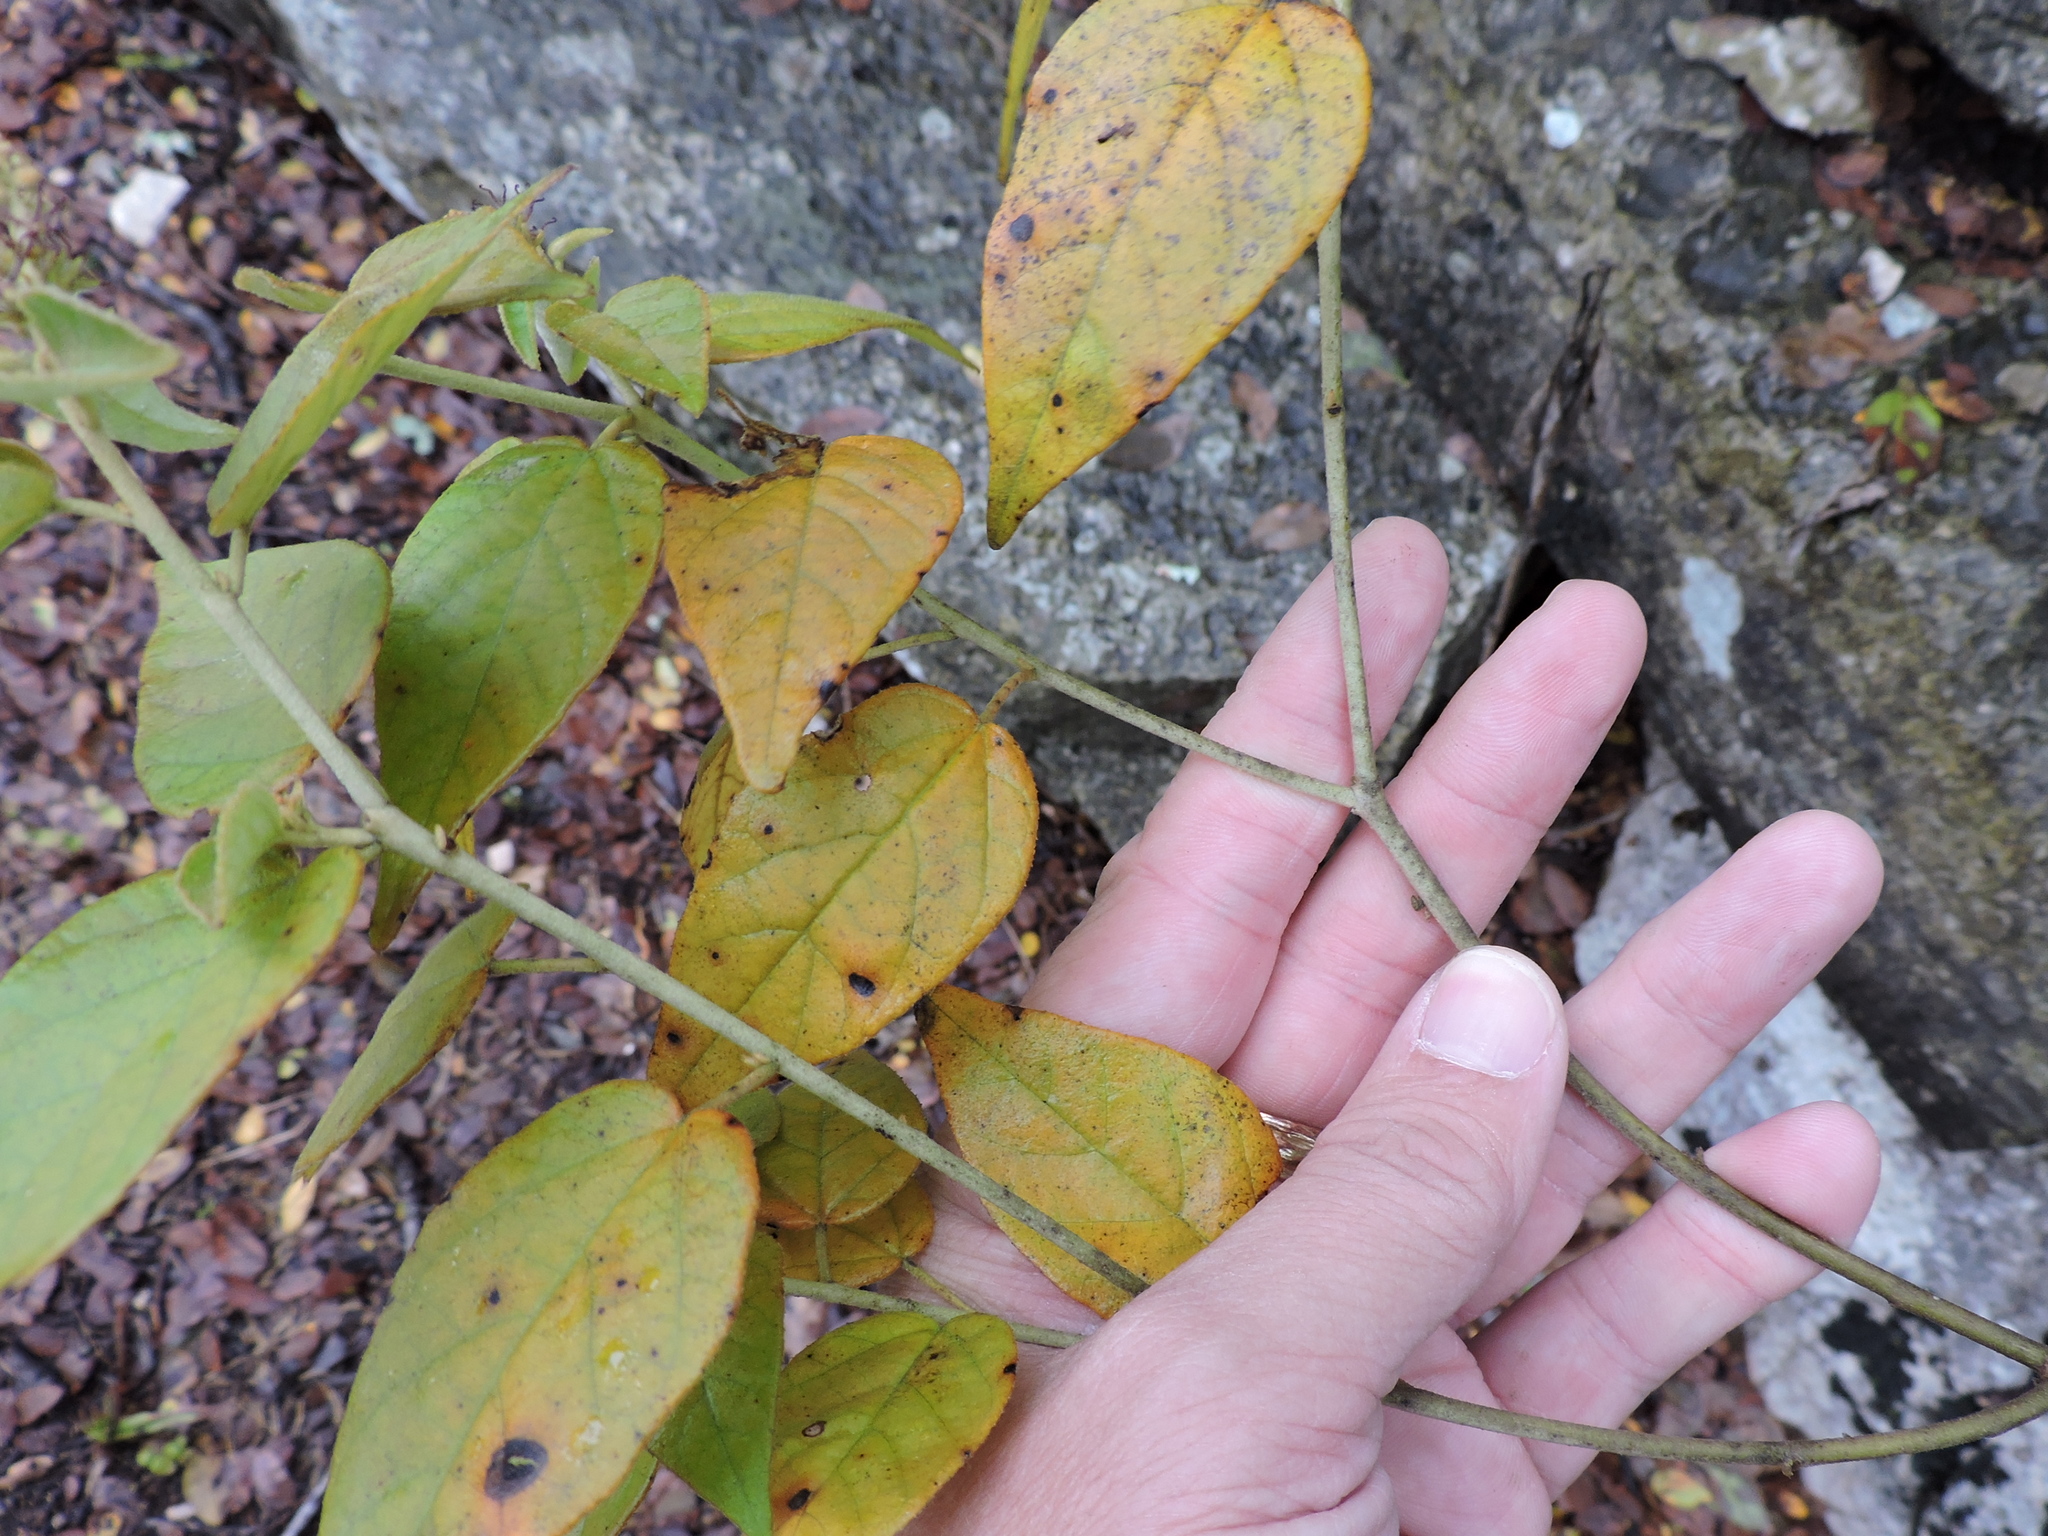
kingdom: Plantae
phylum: Tracheophyta
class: Magnoliopsida
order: Malpighiales
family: Euphorbiaceae
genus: Croton
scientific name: Croton fruticulosus
